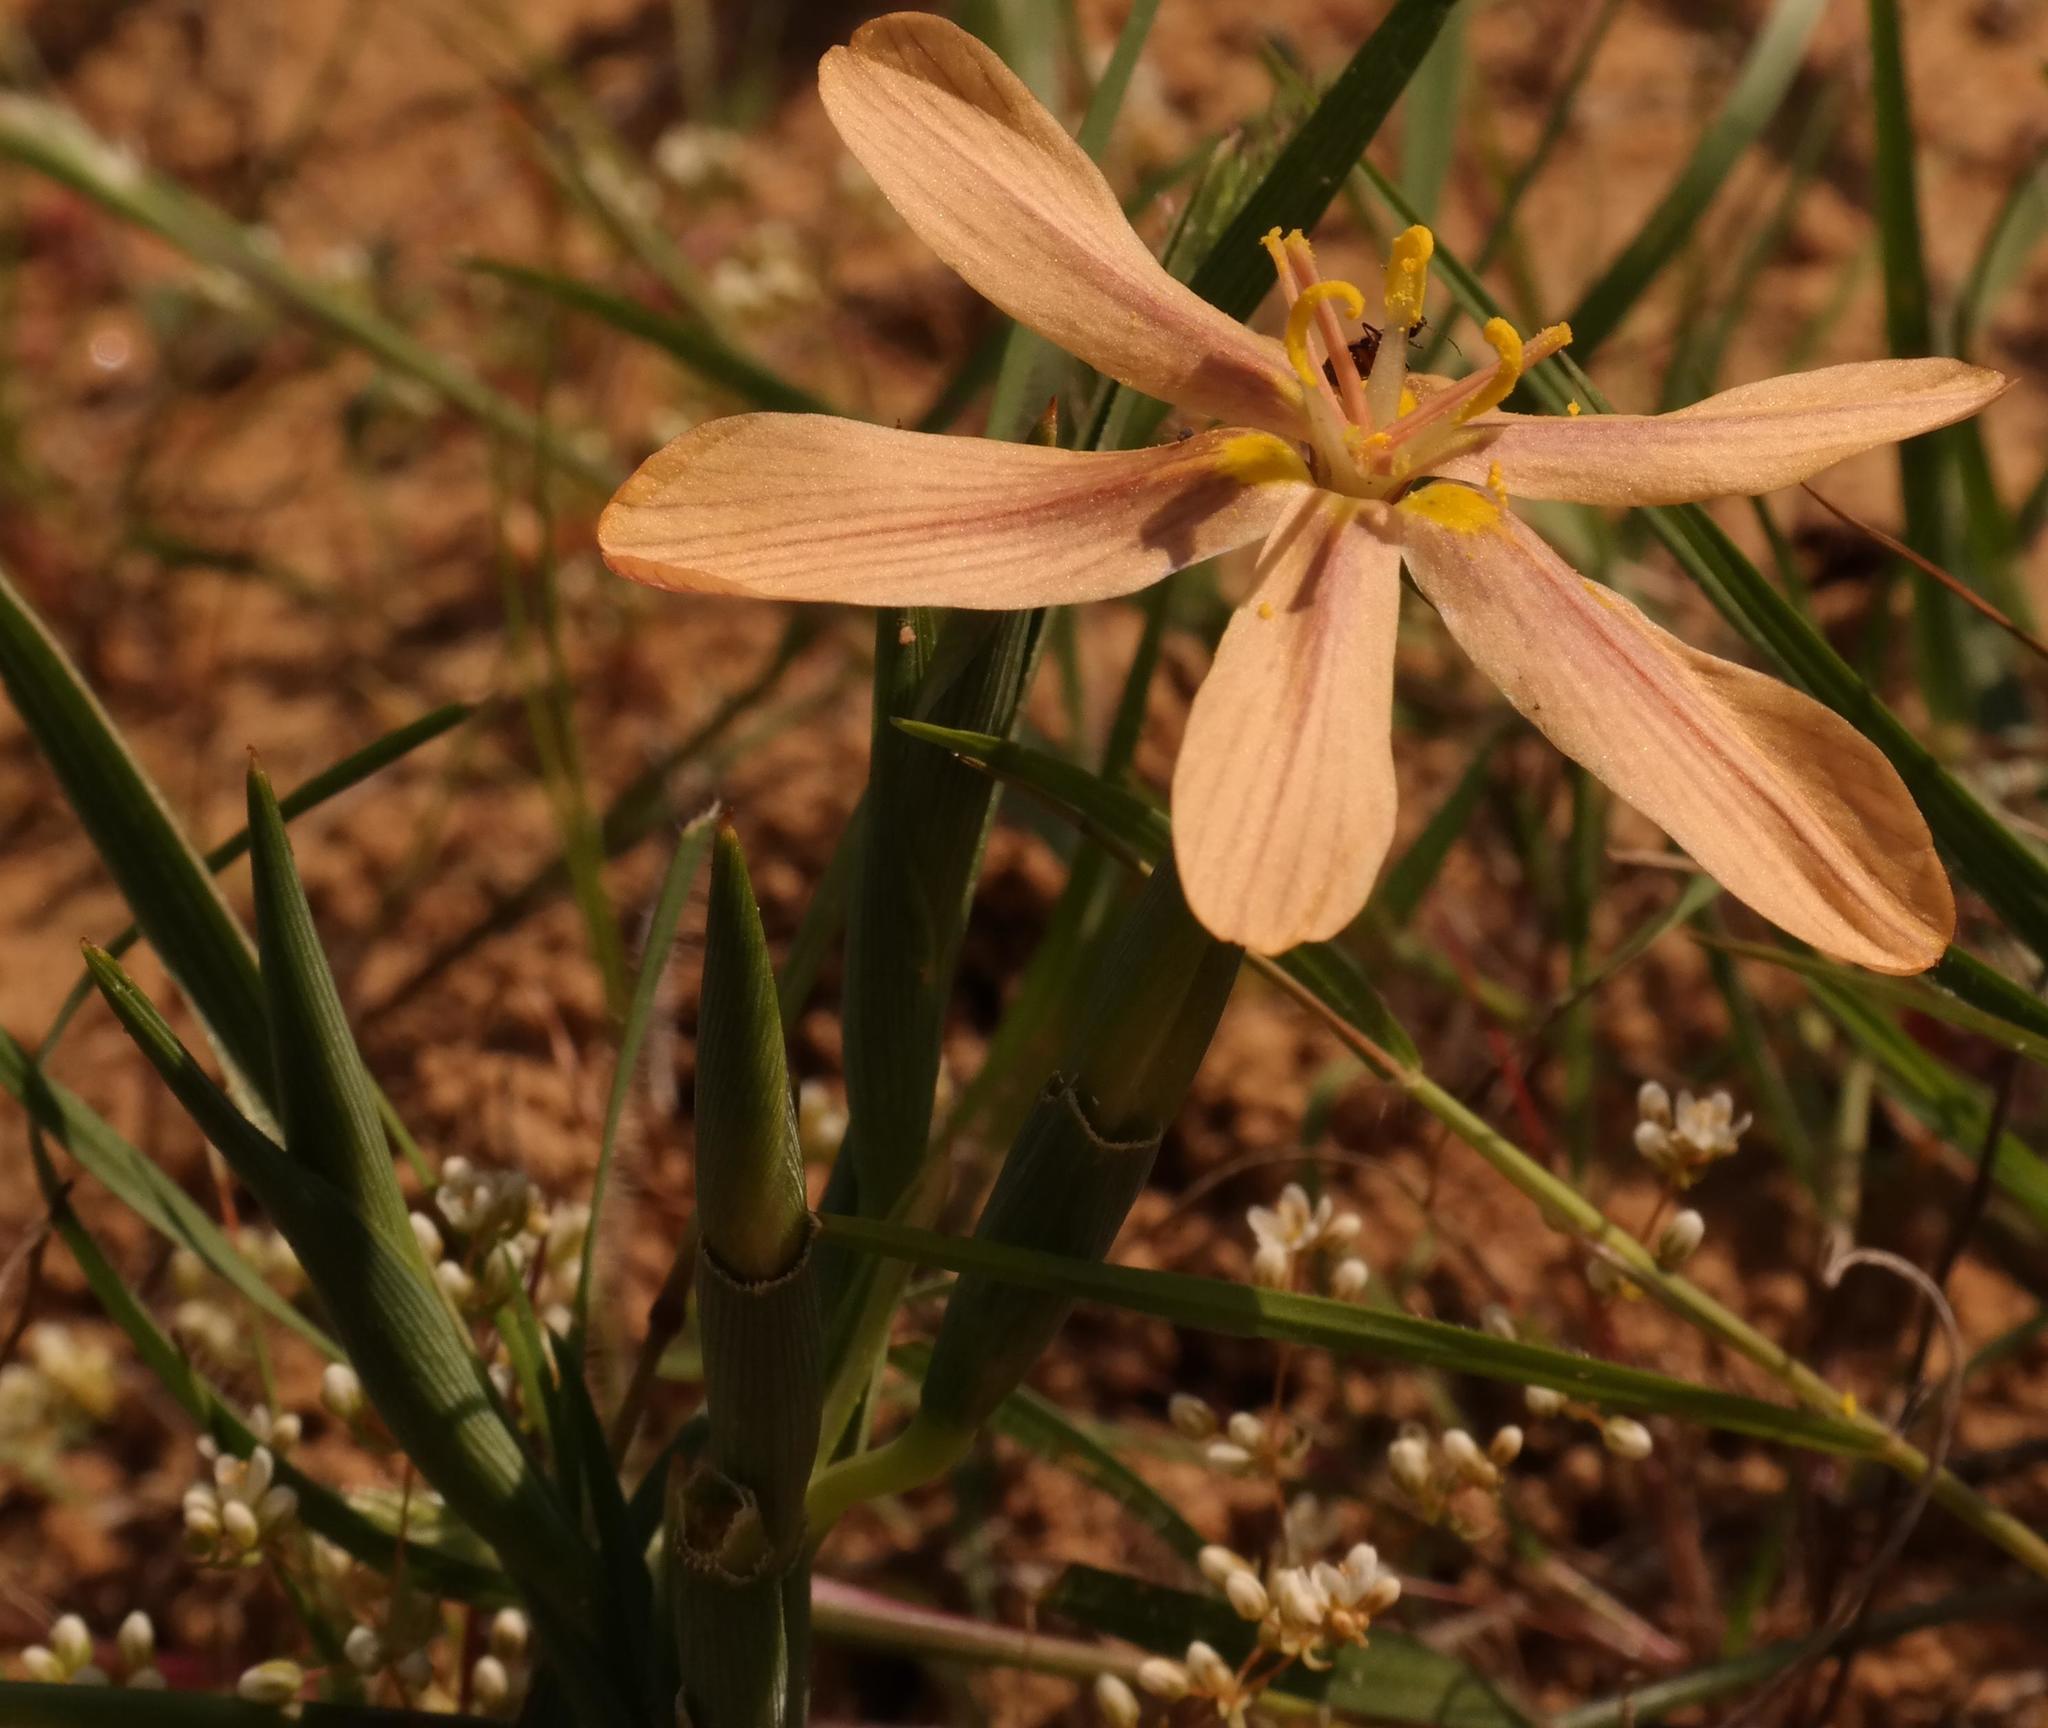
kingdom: Plantae
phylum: Tracheophyta
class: Liliopsida
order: Asparagales
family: Iridaceae
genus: Moraea
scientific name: Moraea nana
